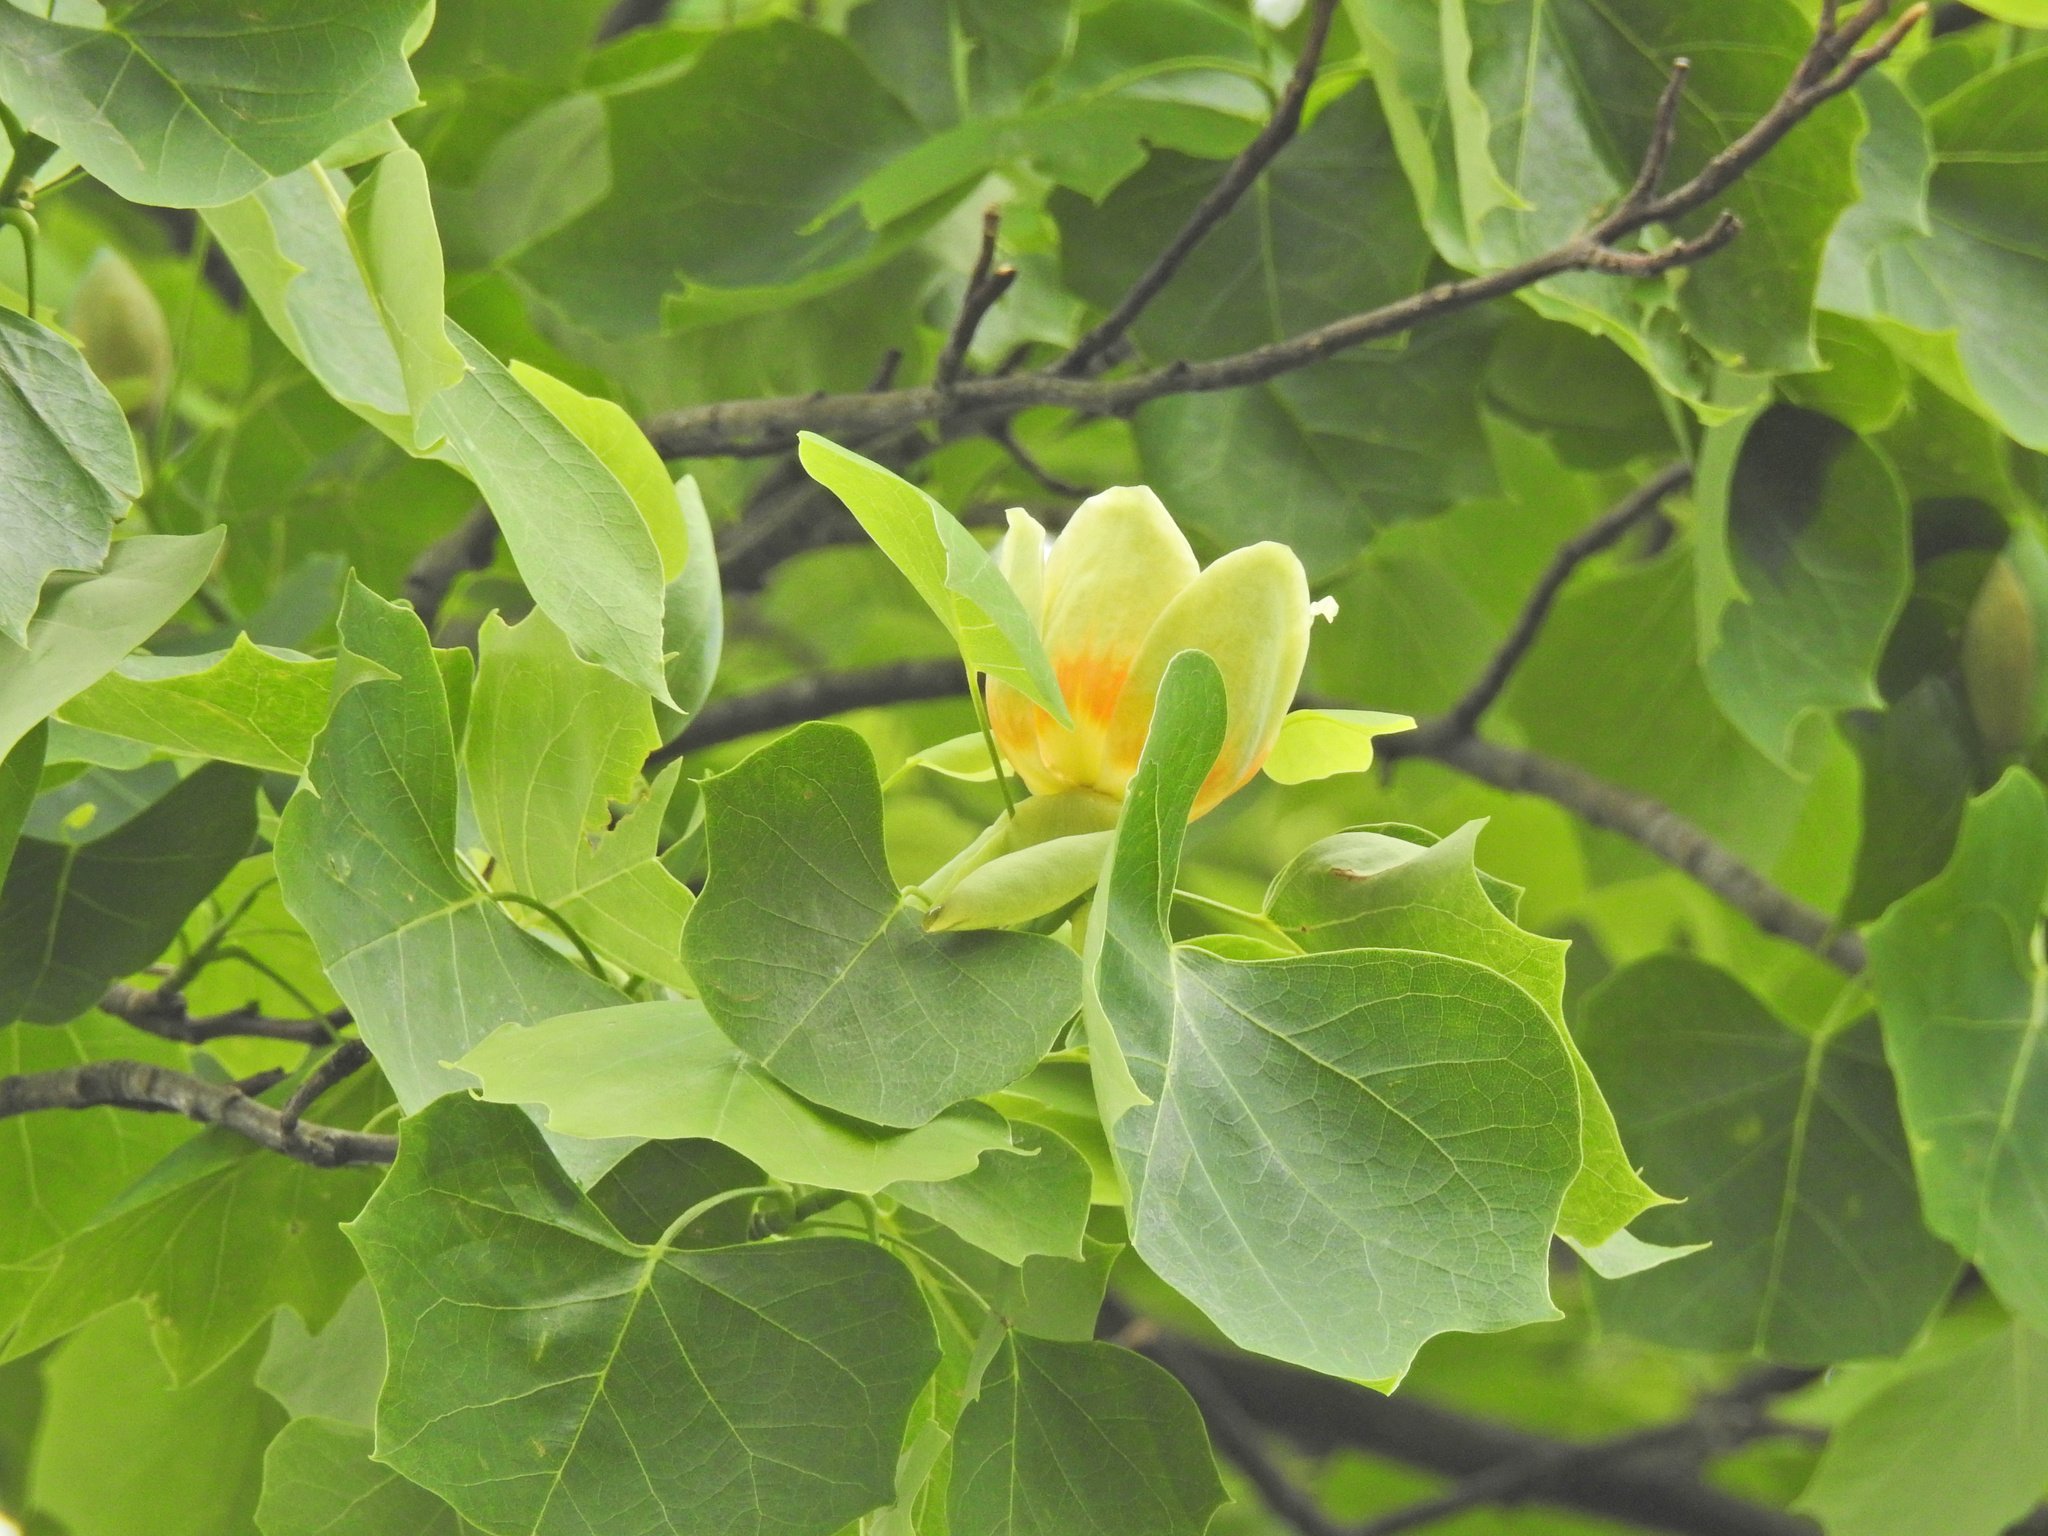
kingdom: Plantae
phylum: Tracheophyta
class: Magnoliopsida
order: Magnoliales
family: Magnoliaceae
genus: Liriodendron
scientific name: Liriodendron tulipifera
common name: Tulip tree
